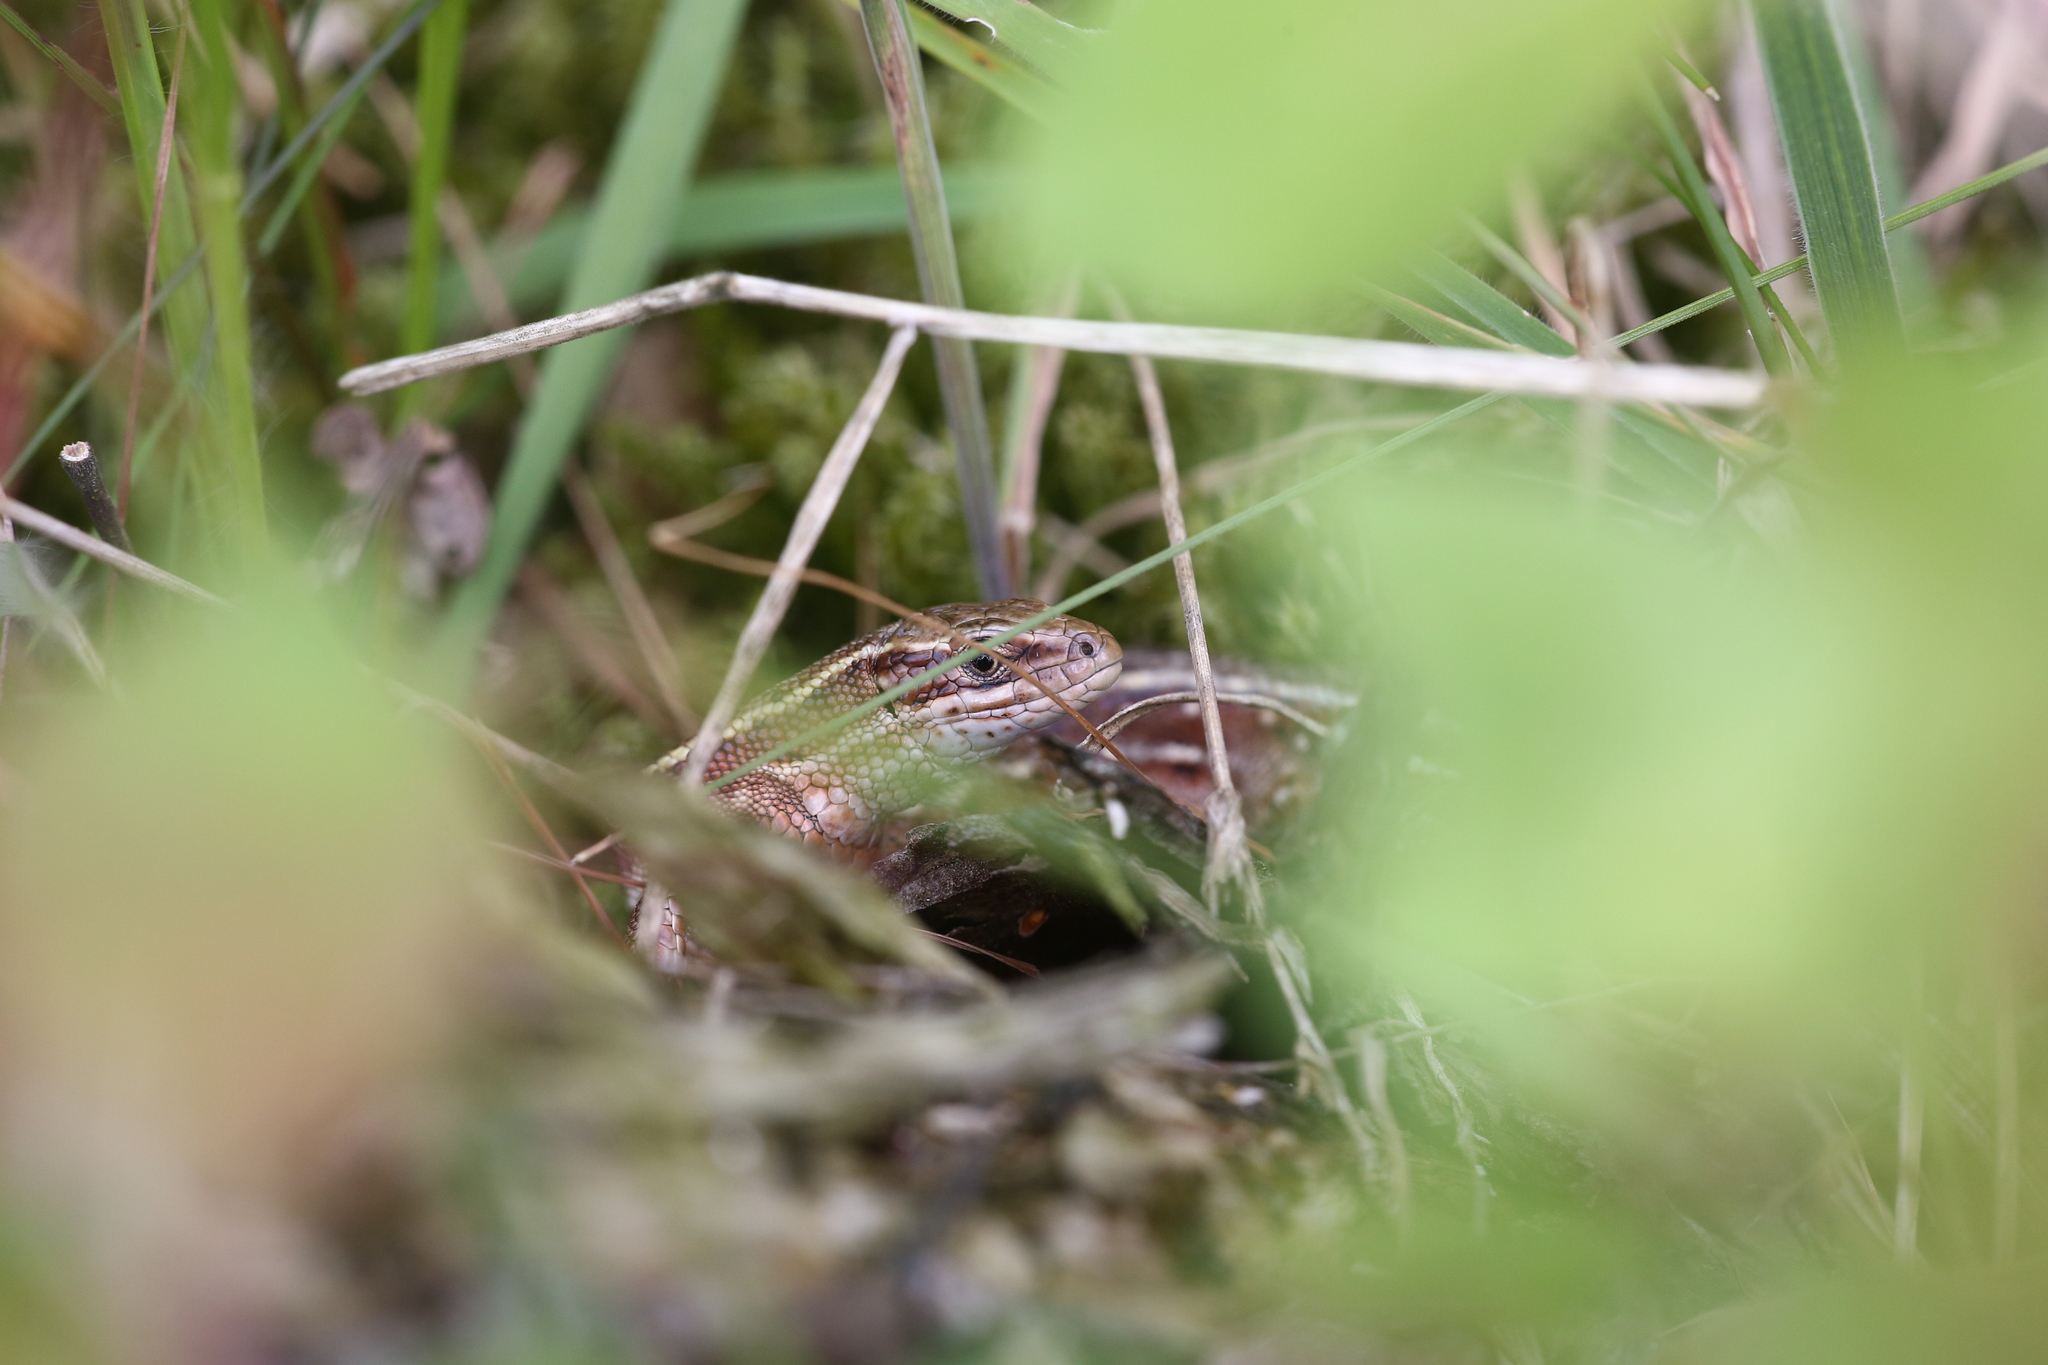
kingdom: Animalia
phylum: Chordata
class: Squamata
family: Lacertidae
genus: Zootoca
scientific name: Zootoca vivipara
